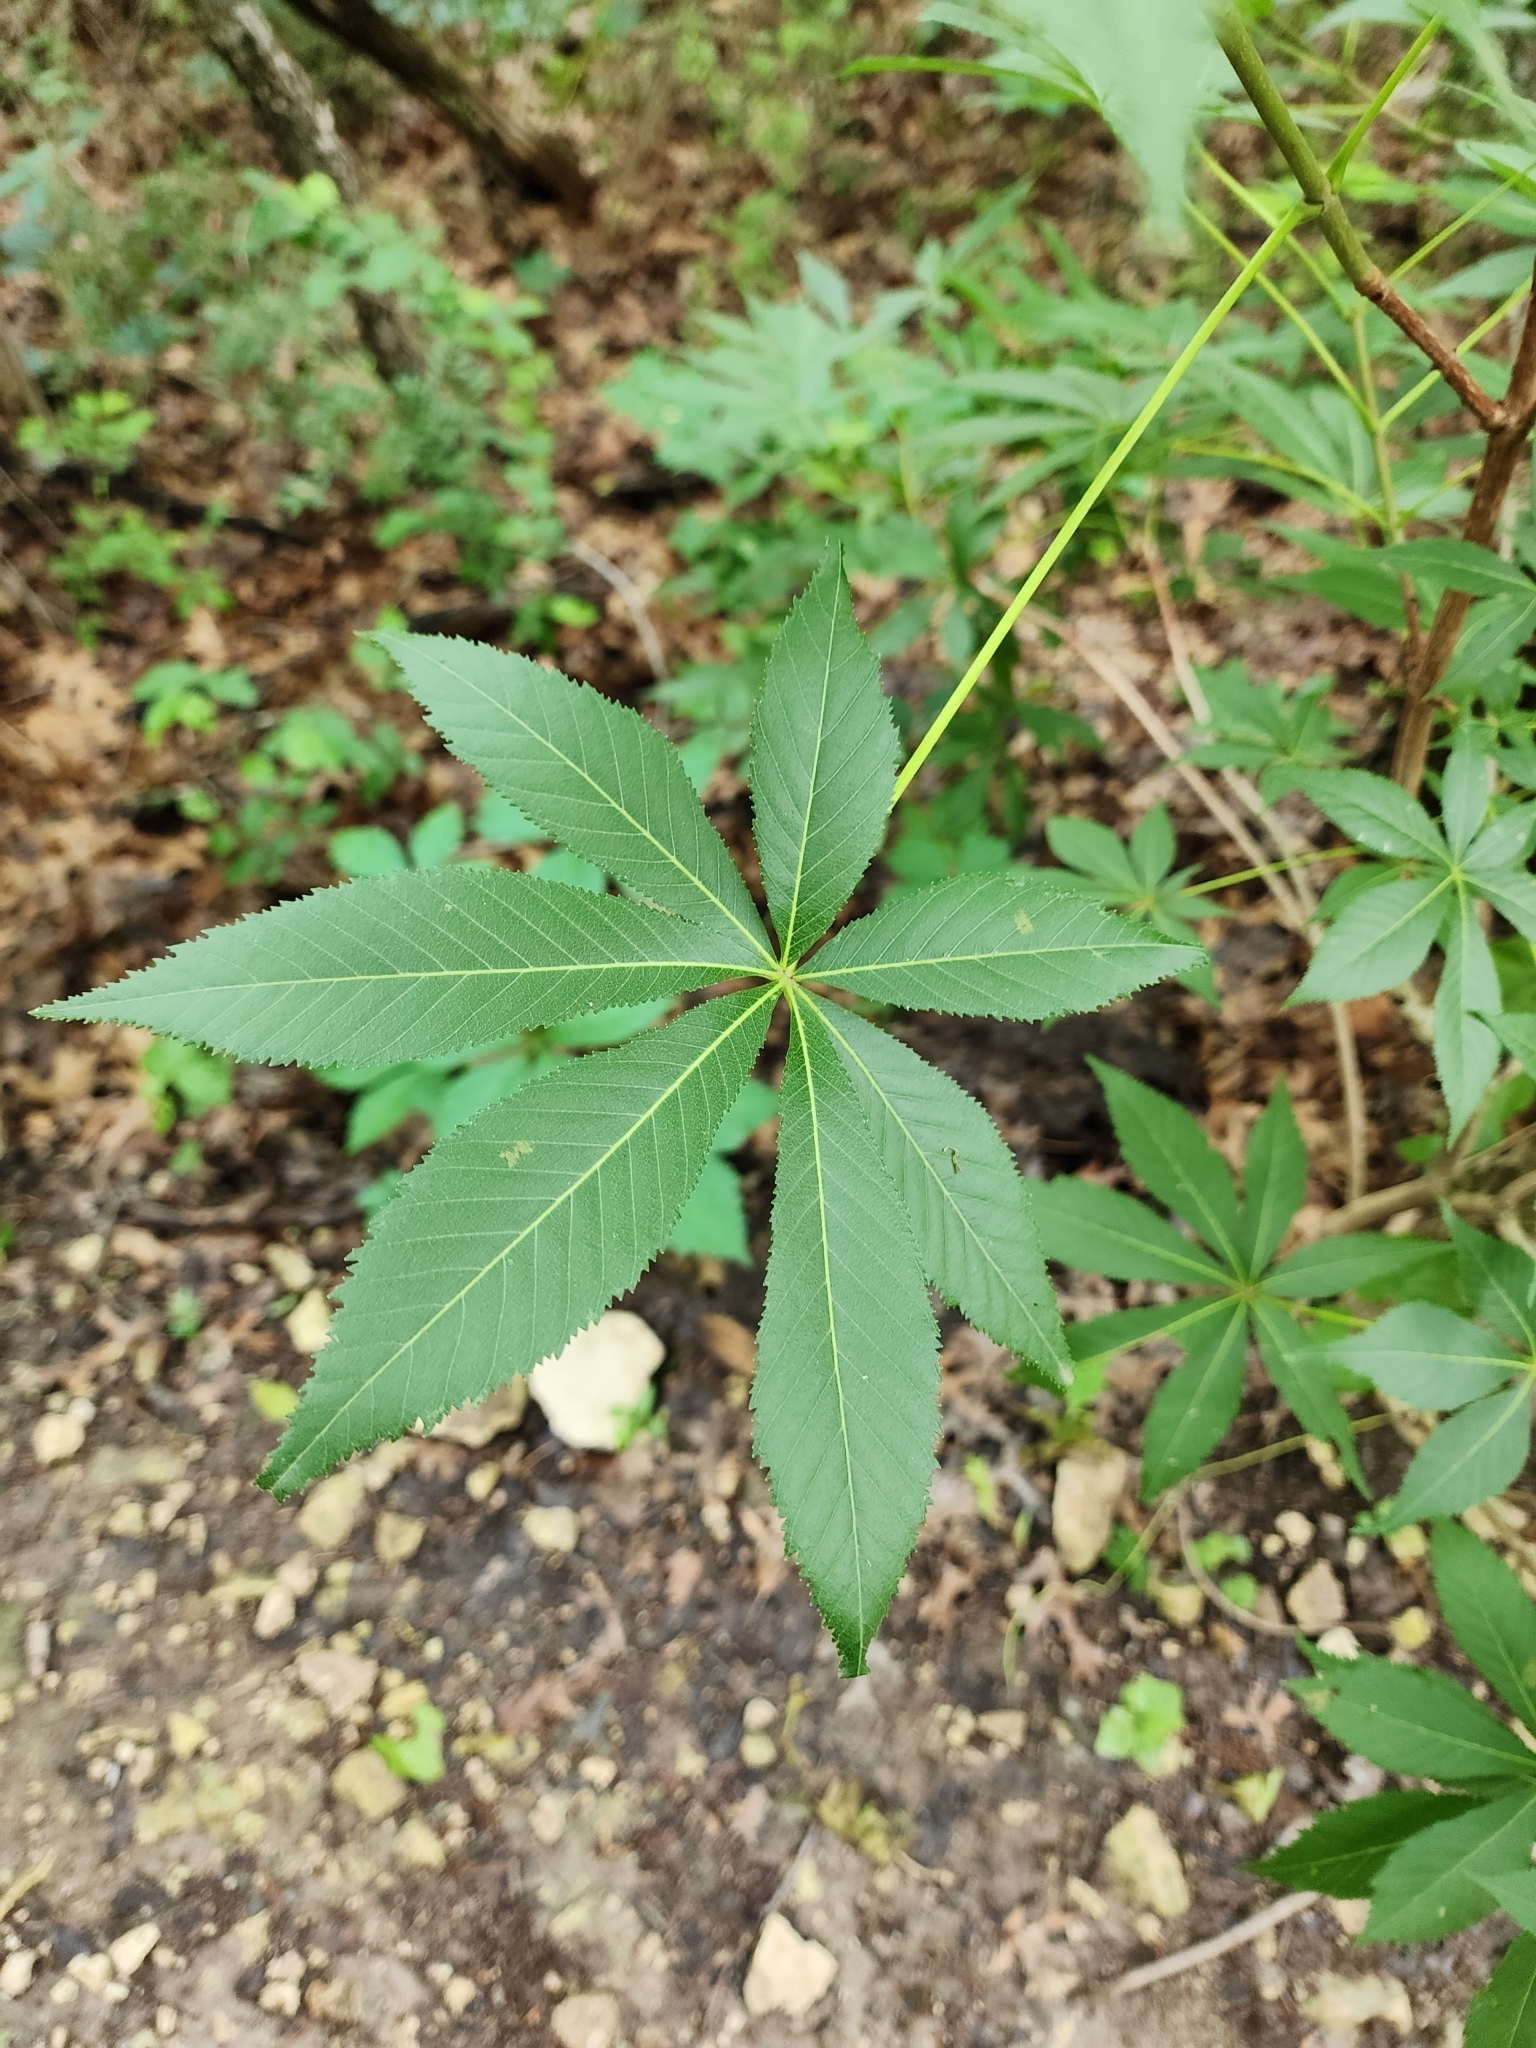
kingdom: Plantae
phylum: Tracheophyta
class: Magnoliopsida
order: Sapindales
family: Sapindaceae
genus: Aesculus
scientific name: Aesculus glabra
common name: Ohio buckeye
